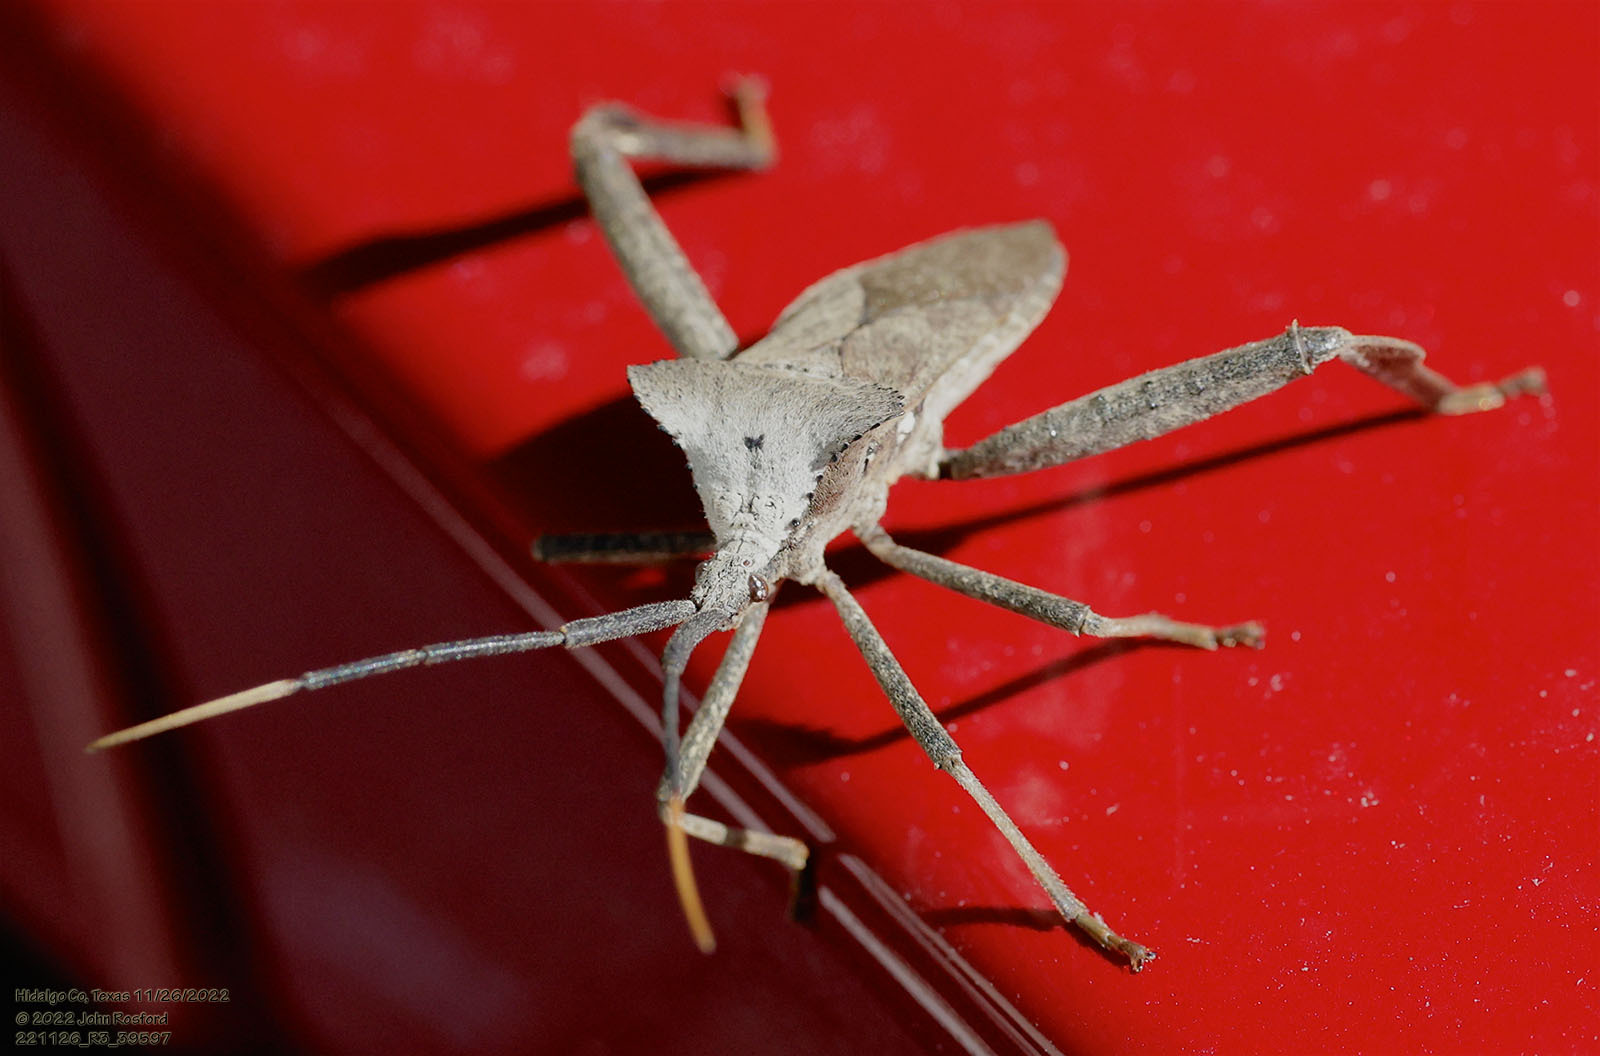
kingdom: Animalia
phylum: Arthropoda
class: Insecta
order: Hemiptera
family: Coreidae
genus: Acanthocephala
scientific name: Acanthocephala alata
